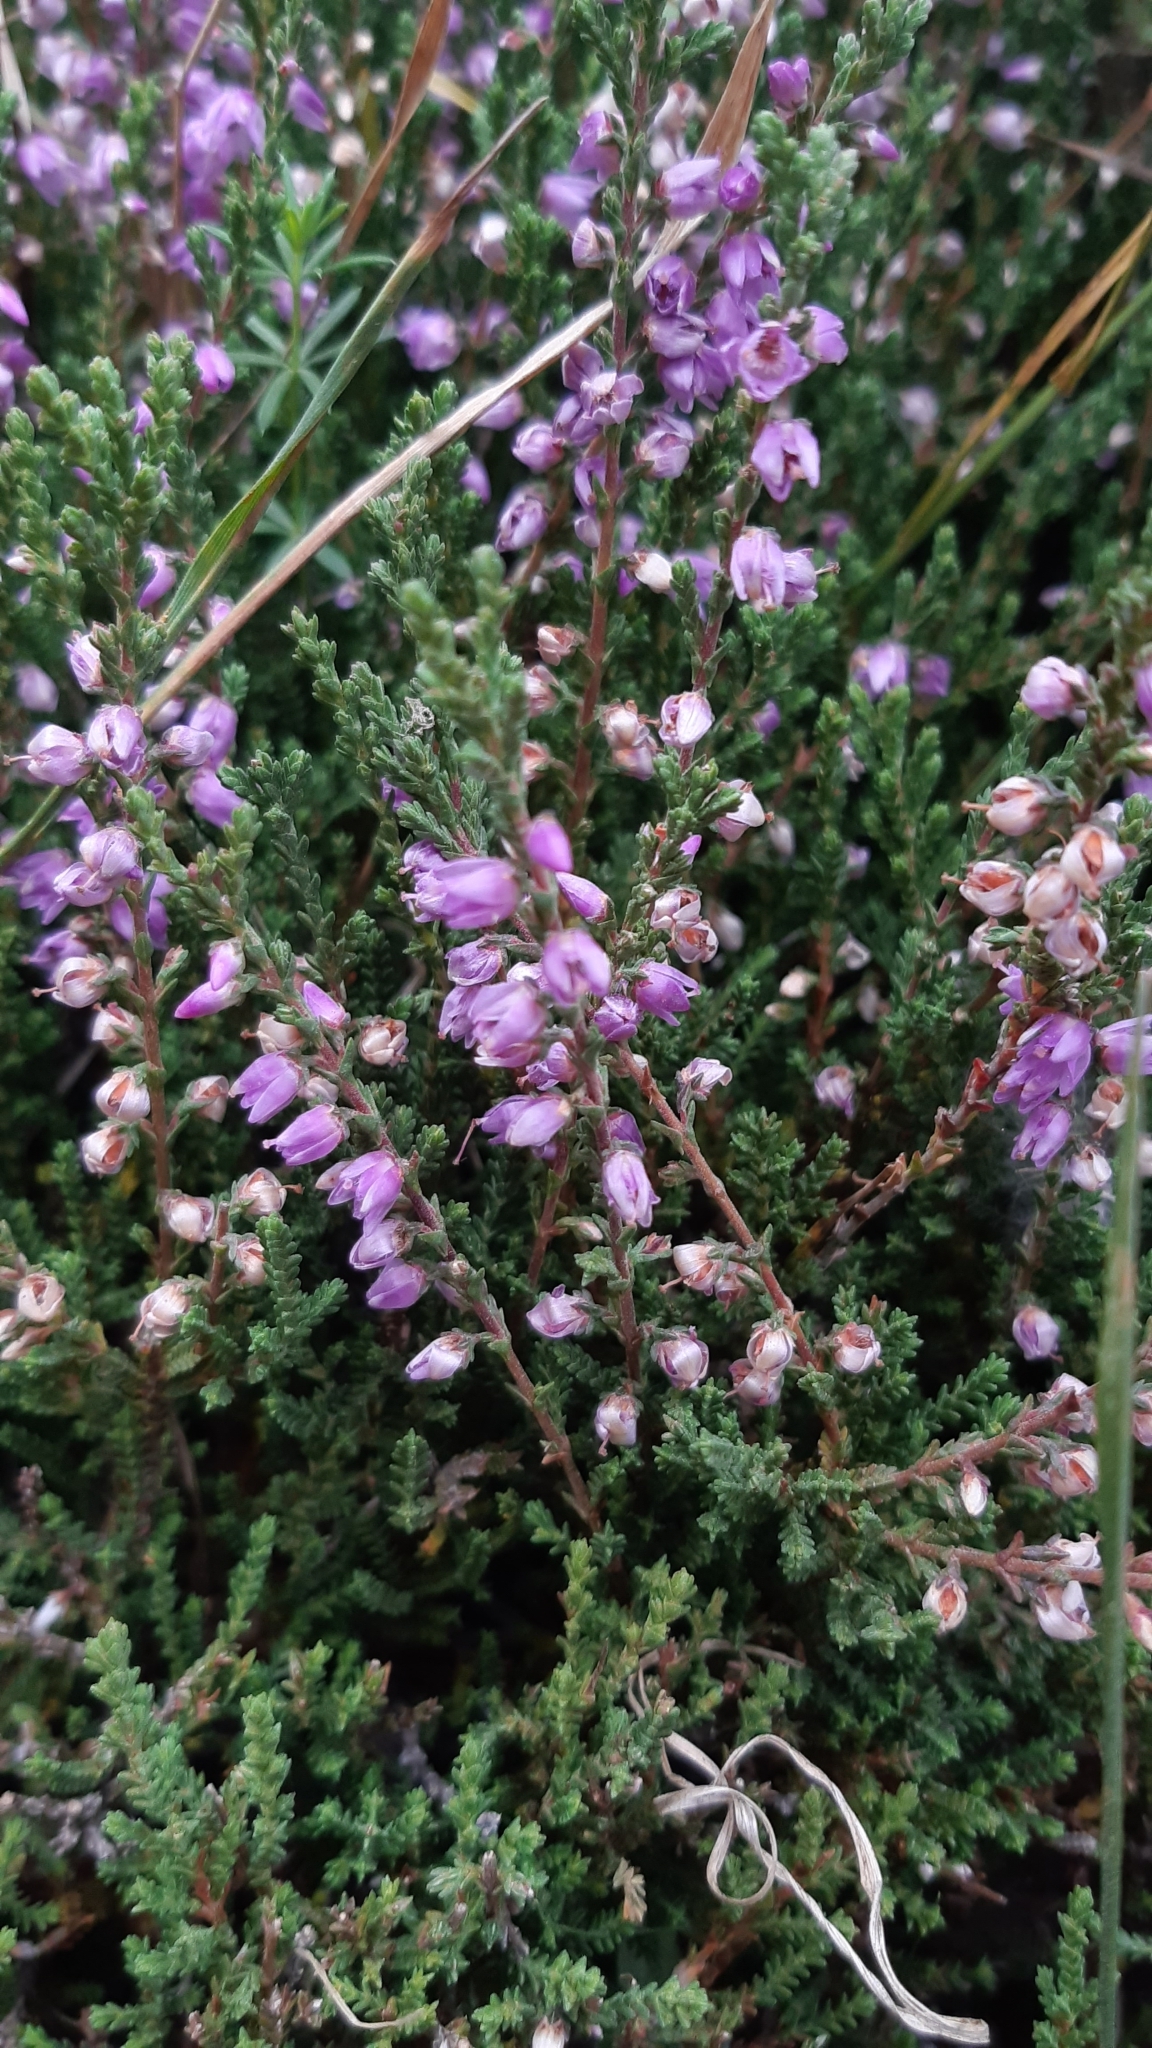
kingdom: Plantae
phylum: Tracheophyta
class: Magnoliopsida
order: Ericales
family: Ericaceae
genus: Calluna
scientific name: Calluna vulgaris
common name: Heather
